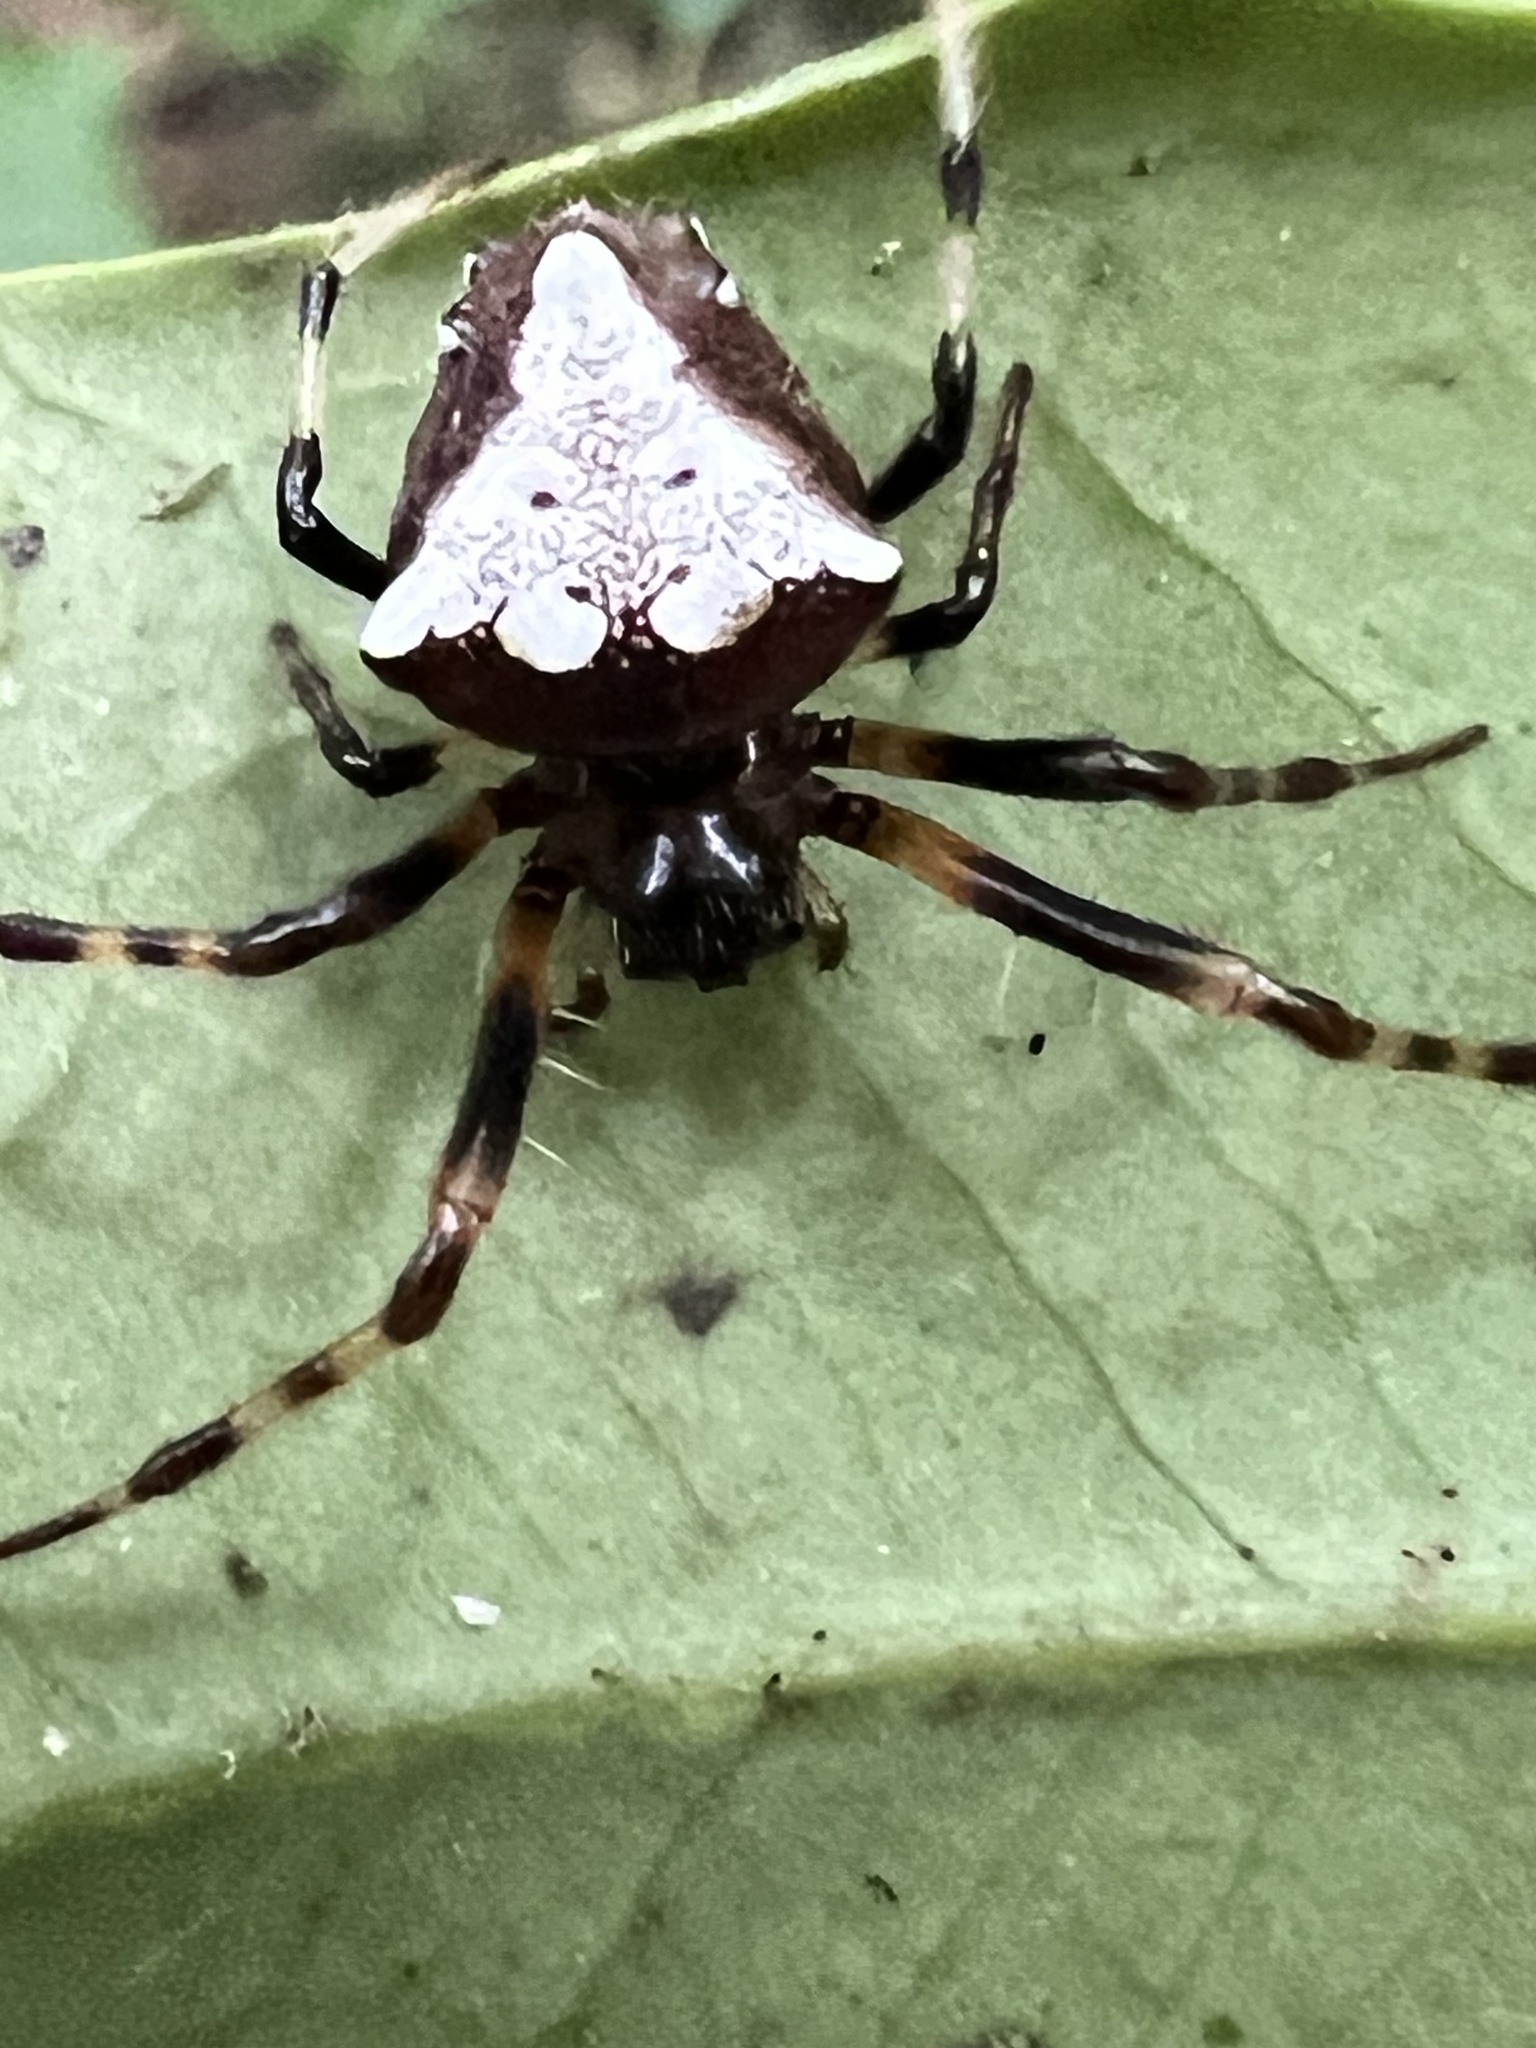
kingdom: Animalia
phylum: Arthropoda
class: Arachnida
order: Araneae
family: Araneidae
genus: Verrucosa
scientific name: Verrucosa arenata
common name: Orb weavers
